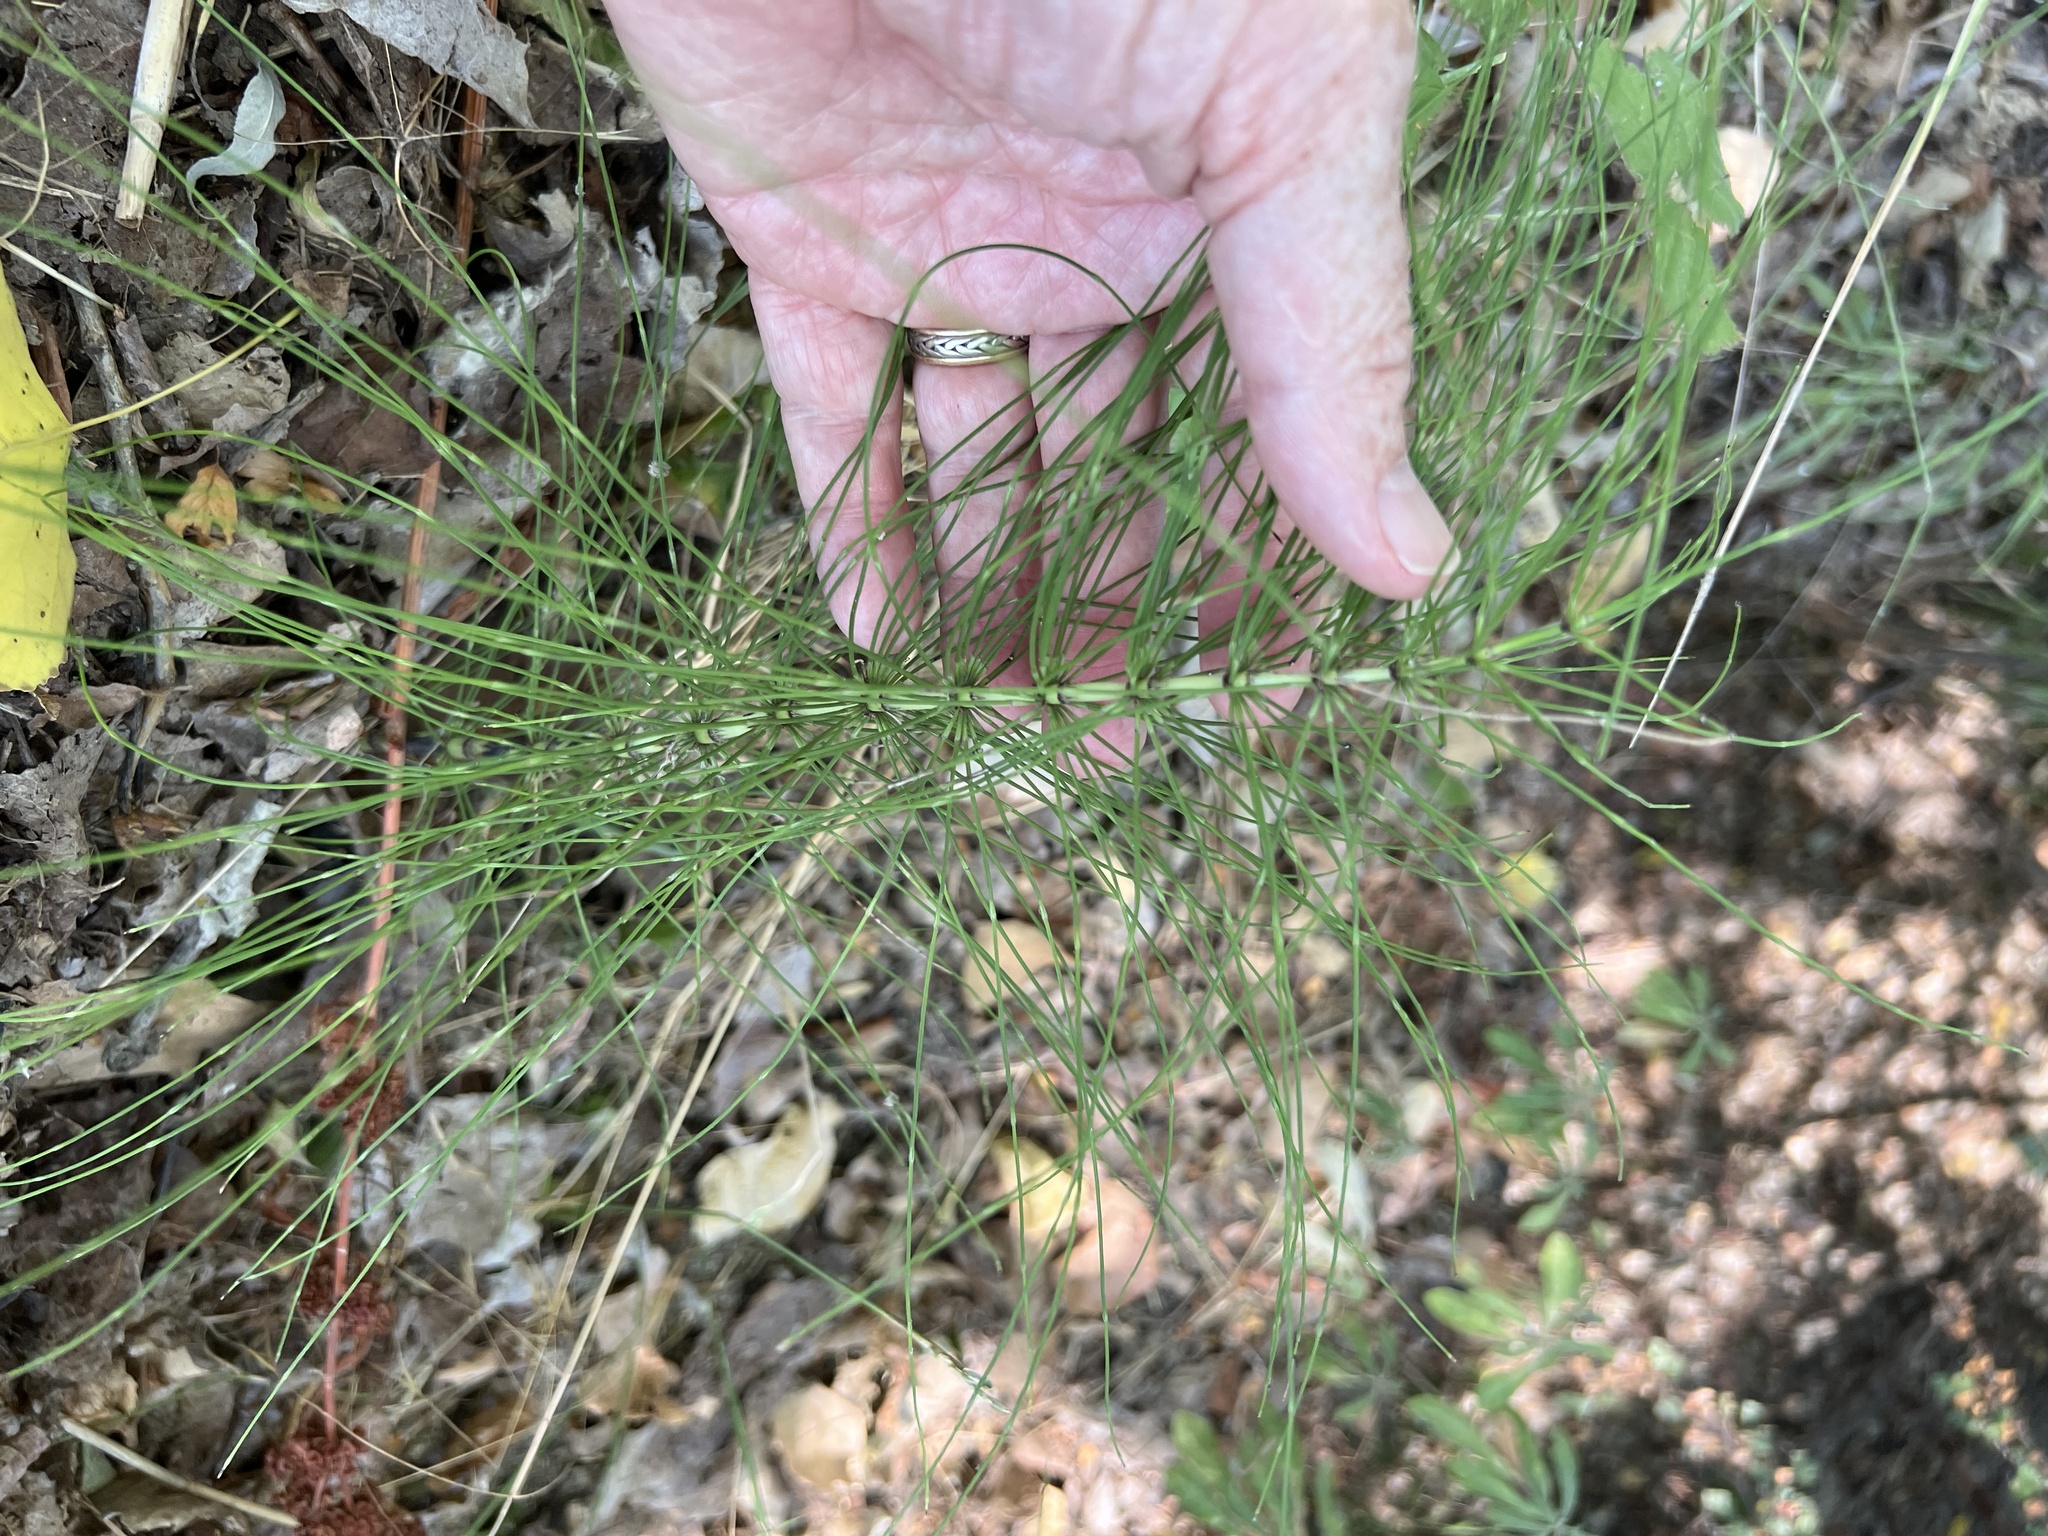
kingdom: Plantae
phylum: Tracheophyta
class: Polypodiopsida
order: Equisetales
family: Equisetaceae
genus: Equisetum
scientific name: Equisetum telmateia
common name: Great horsetail
